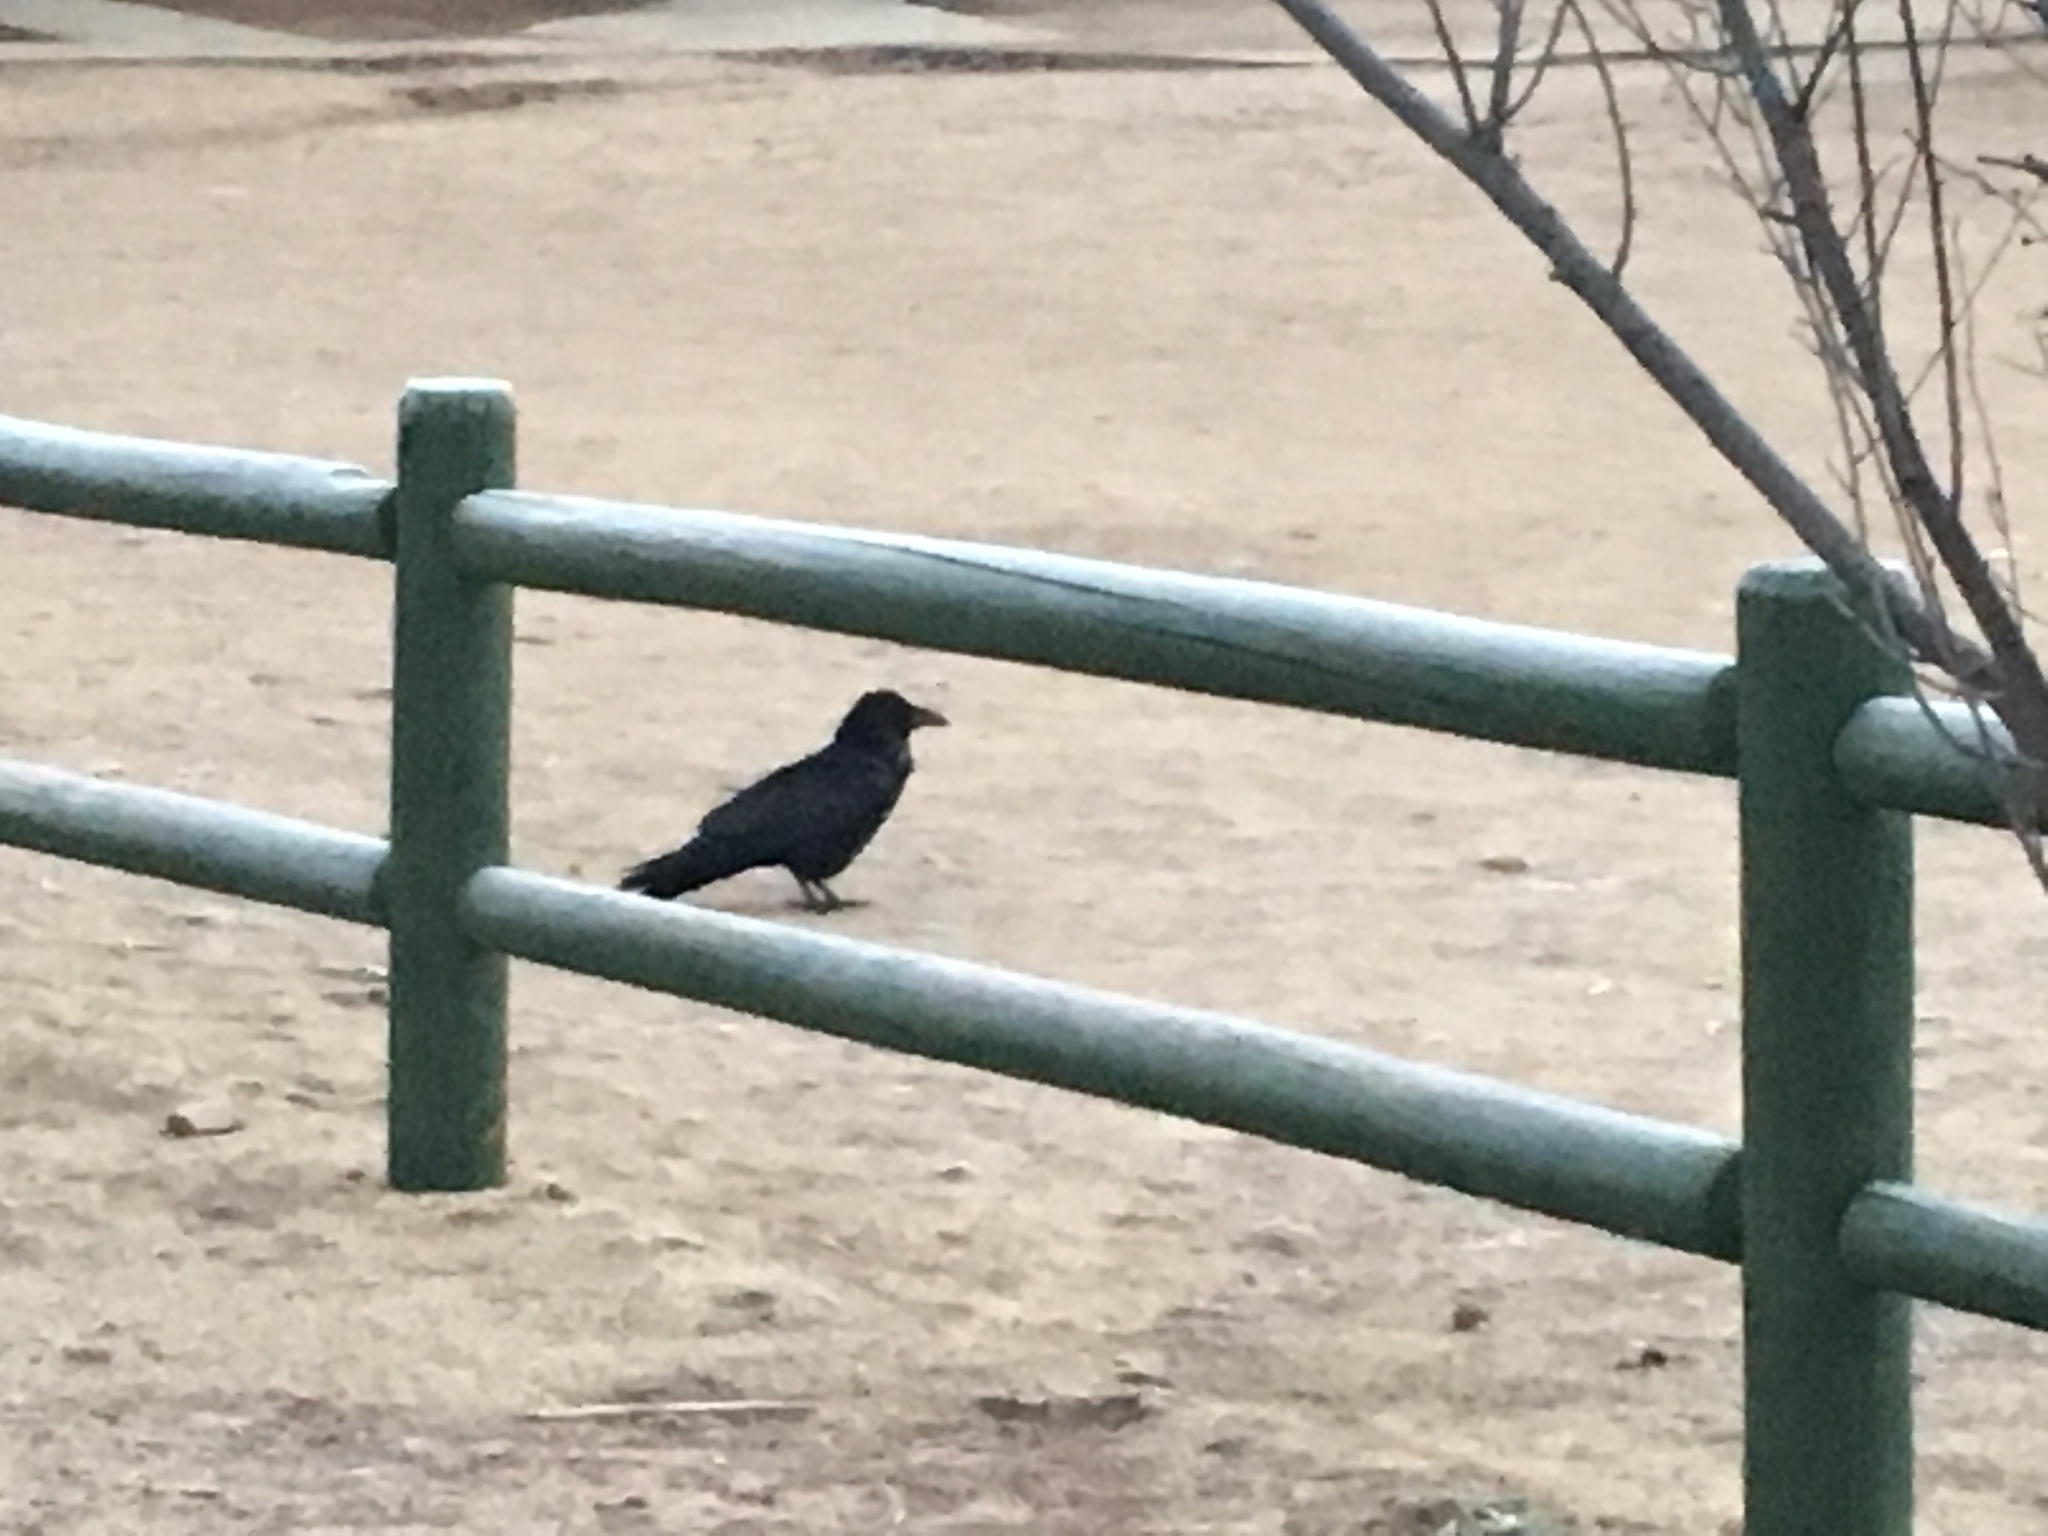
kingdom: Animalia
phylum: Chordata
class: Aves
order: Passeriformes
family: Corvidae
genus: Corvus
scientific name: Corvus corax
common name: Common raven
